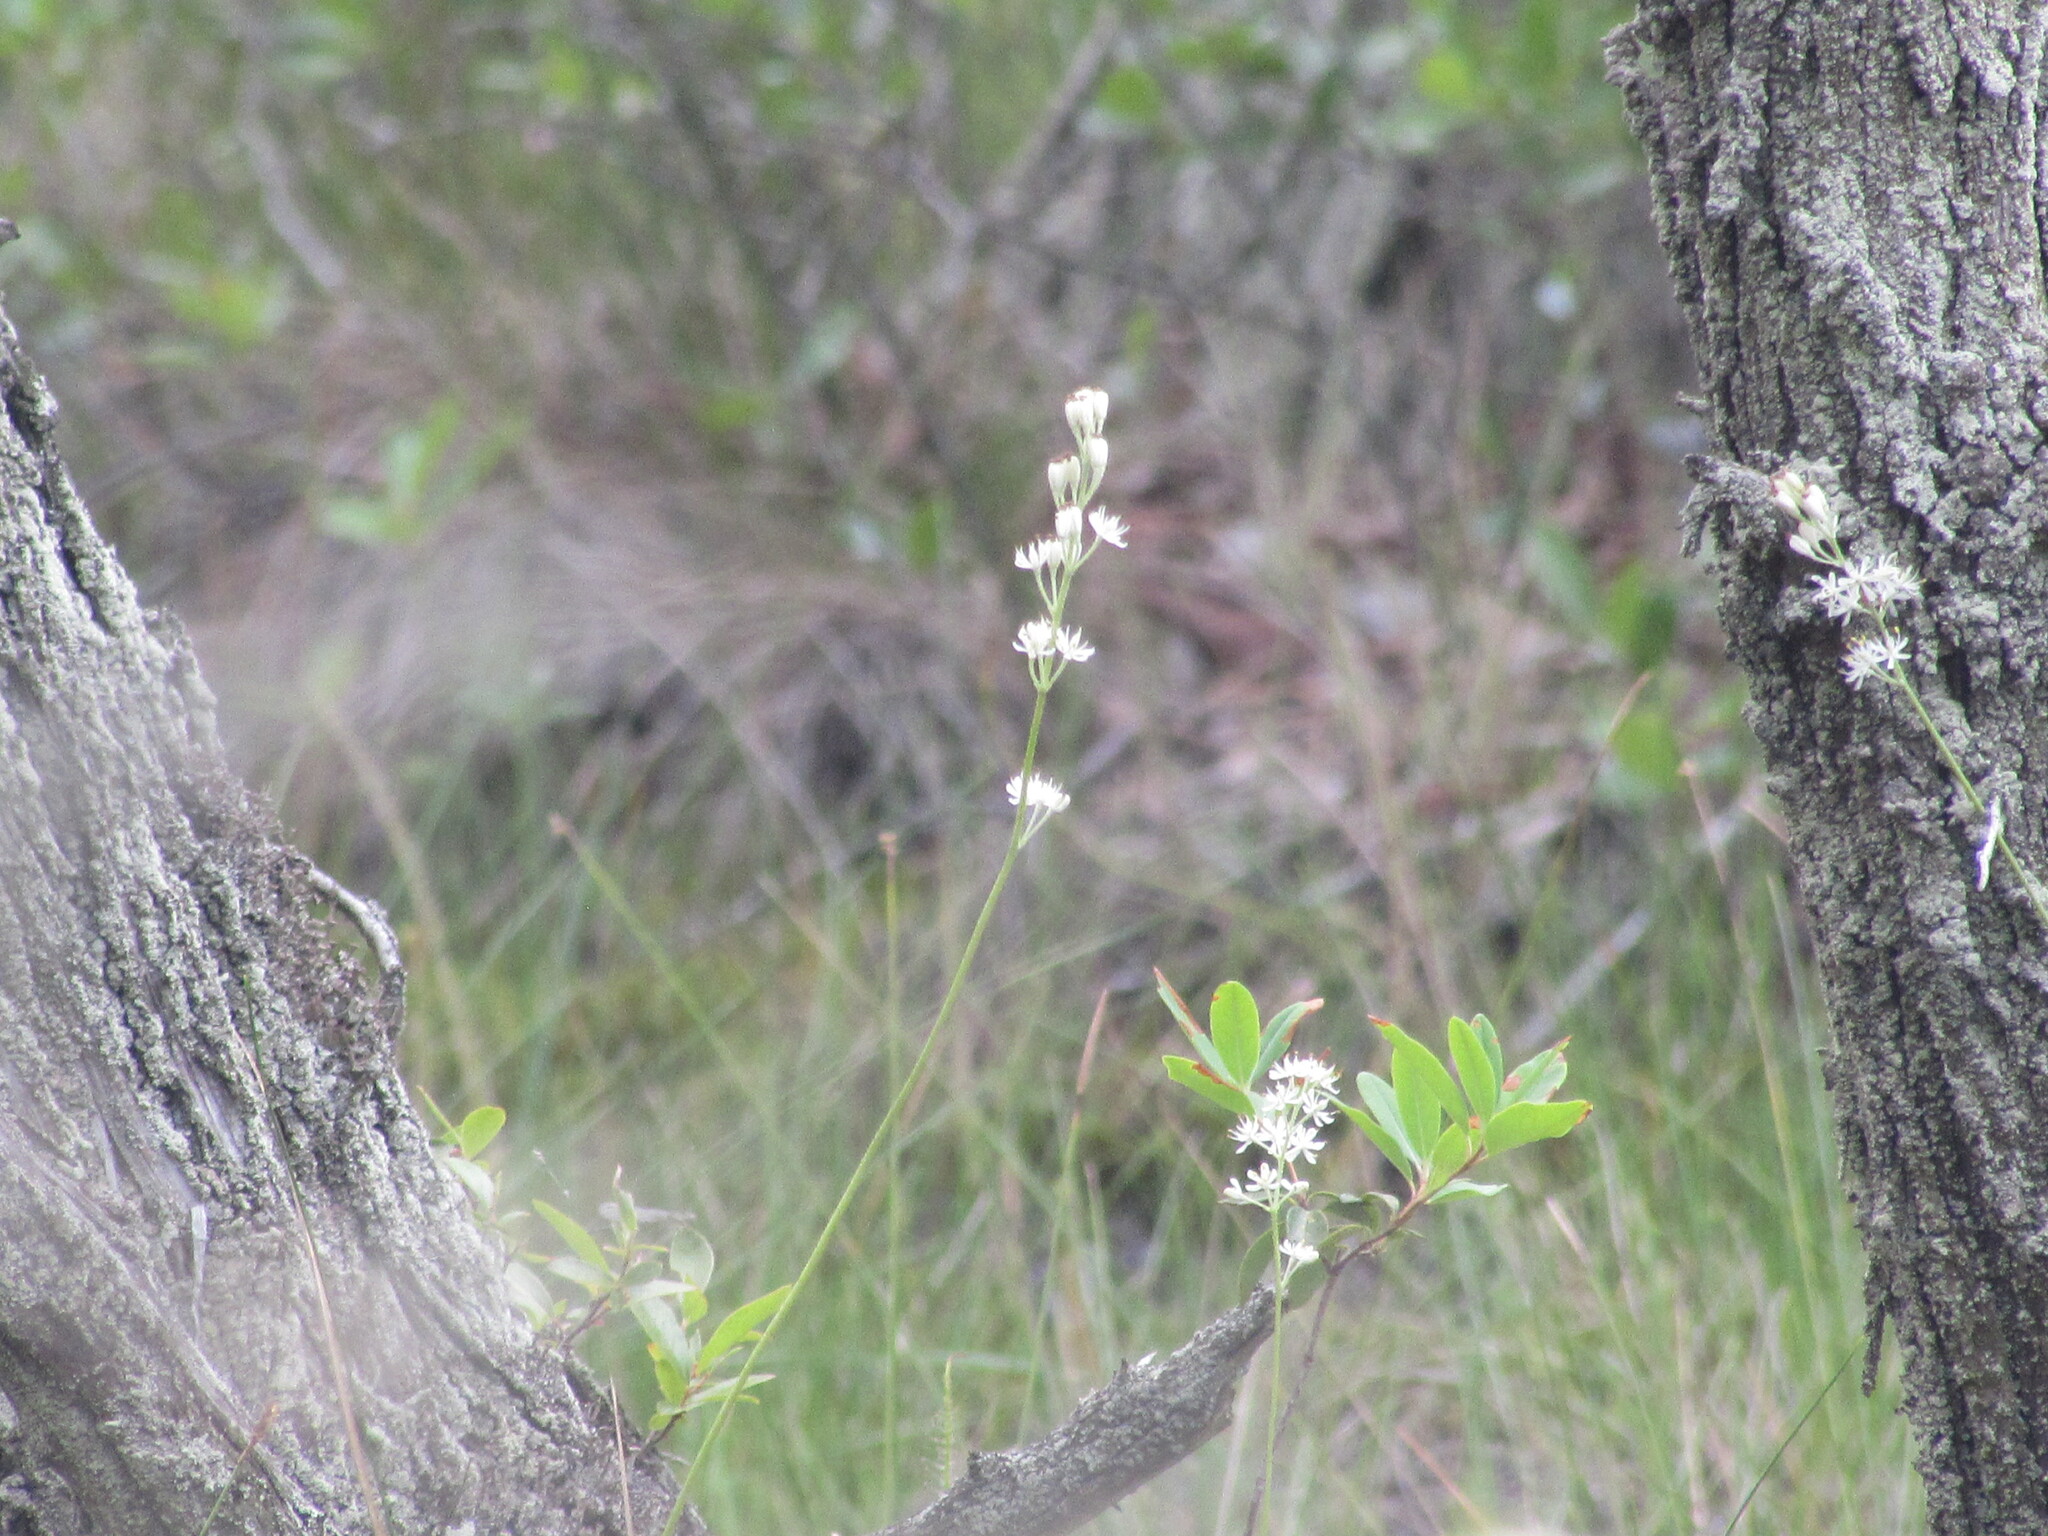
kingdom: Plantae
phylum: Tracheophyta
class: Liliopsida
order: Alismatales
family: Tofieldiaceae
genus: Triantha
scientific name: Triantha racemosa
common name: Coastal false asphodel
